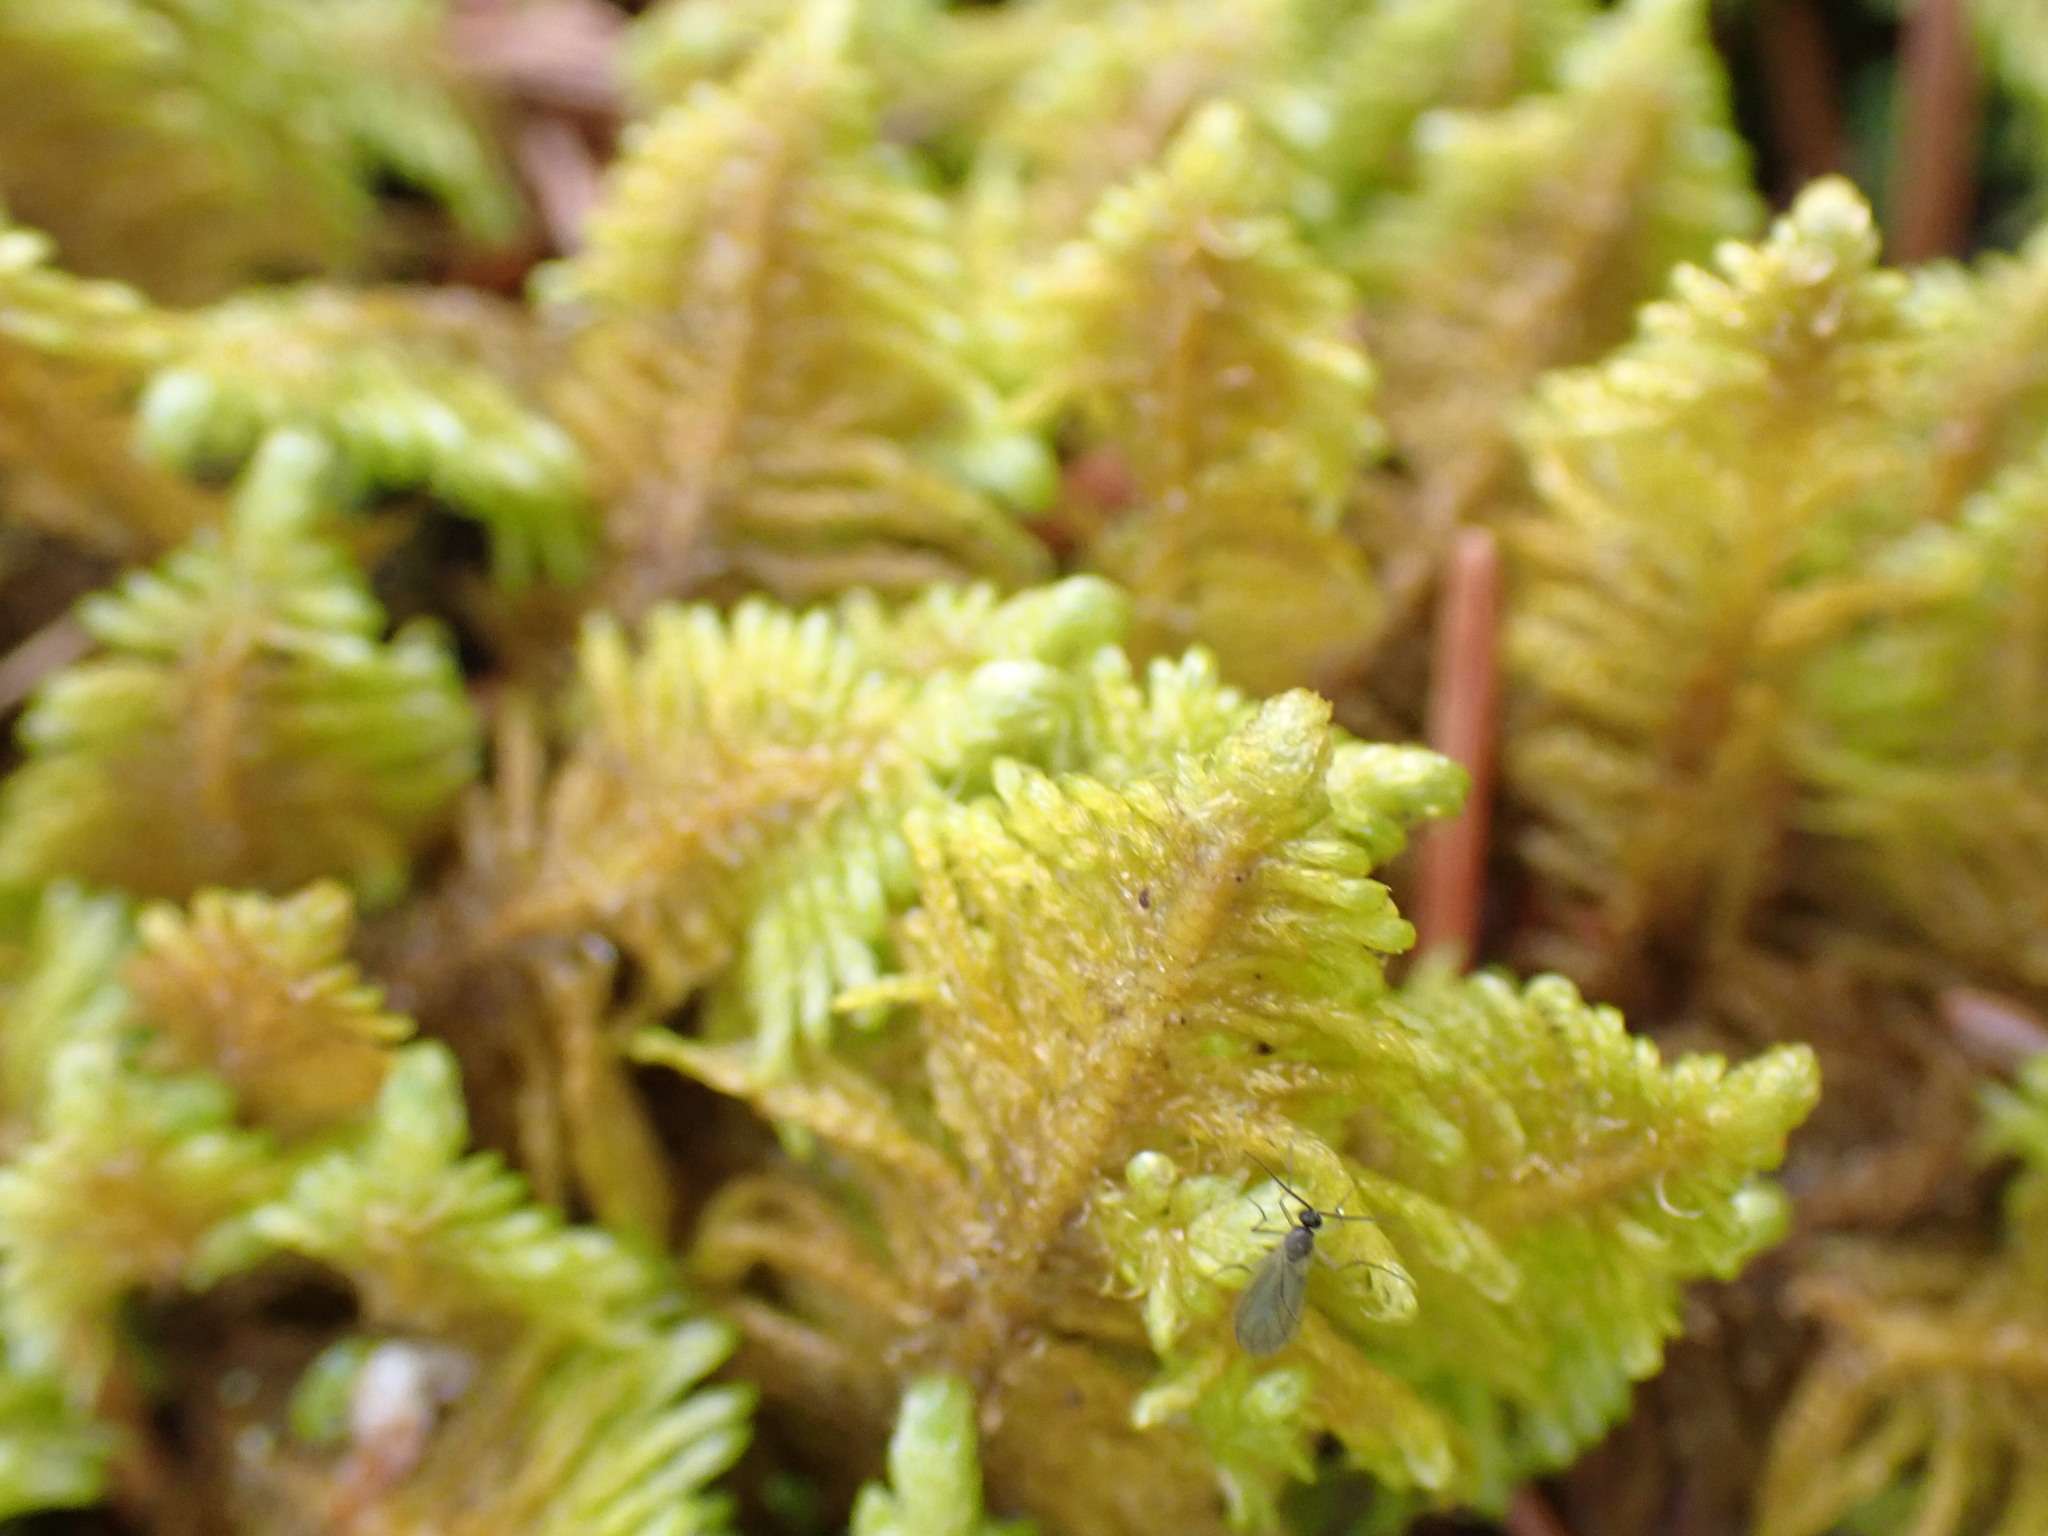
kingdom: Plantae
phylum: Bryophyta
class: Bryopsida
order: Hypnales
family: Pylaisiaceae
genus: Ptilium
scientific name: Ptilium crista-castrensis
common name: Knight's plume moss
